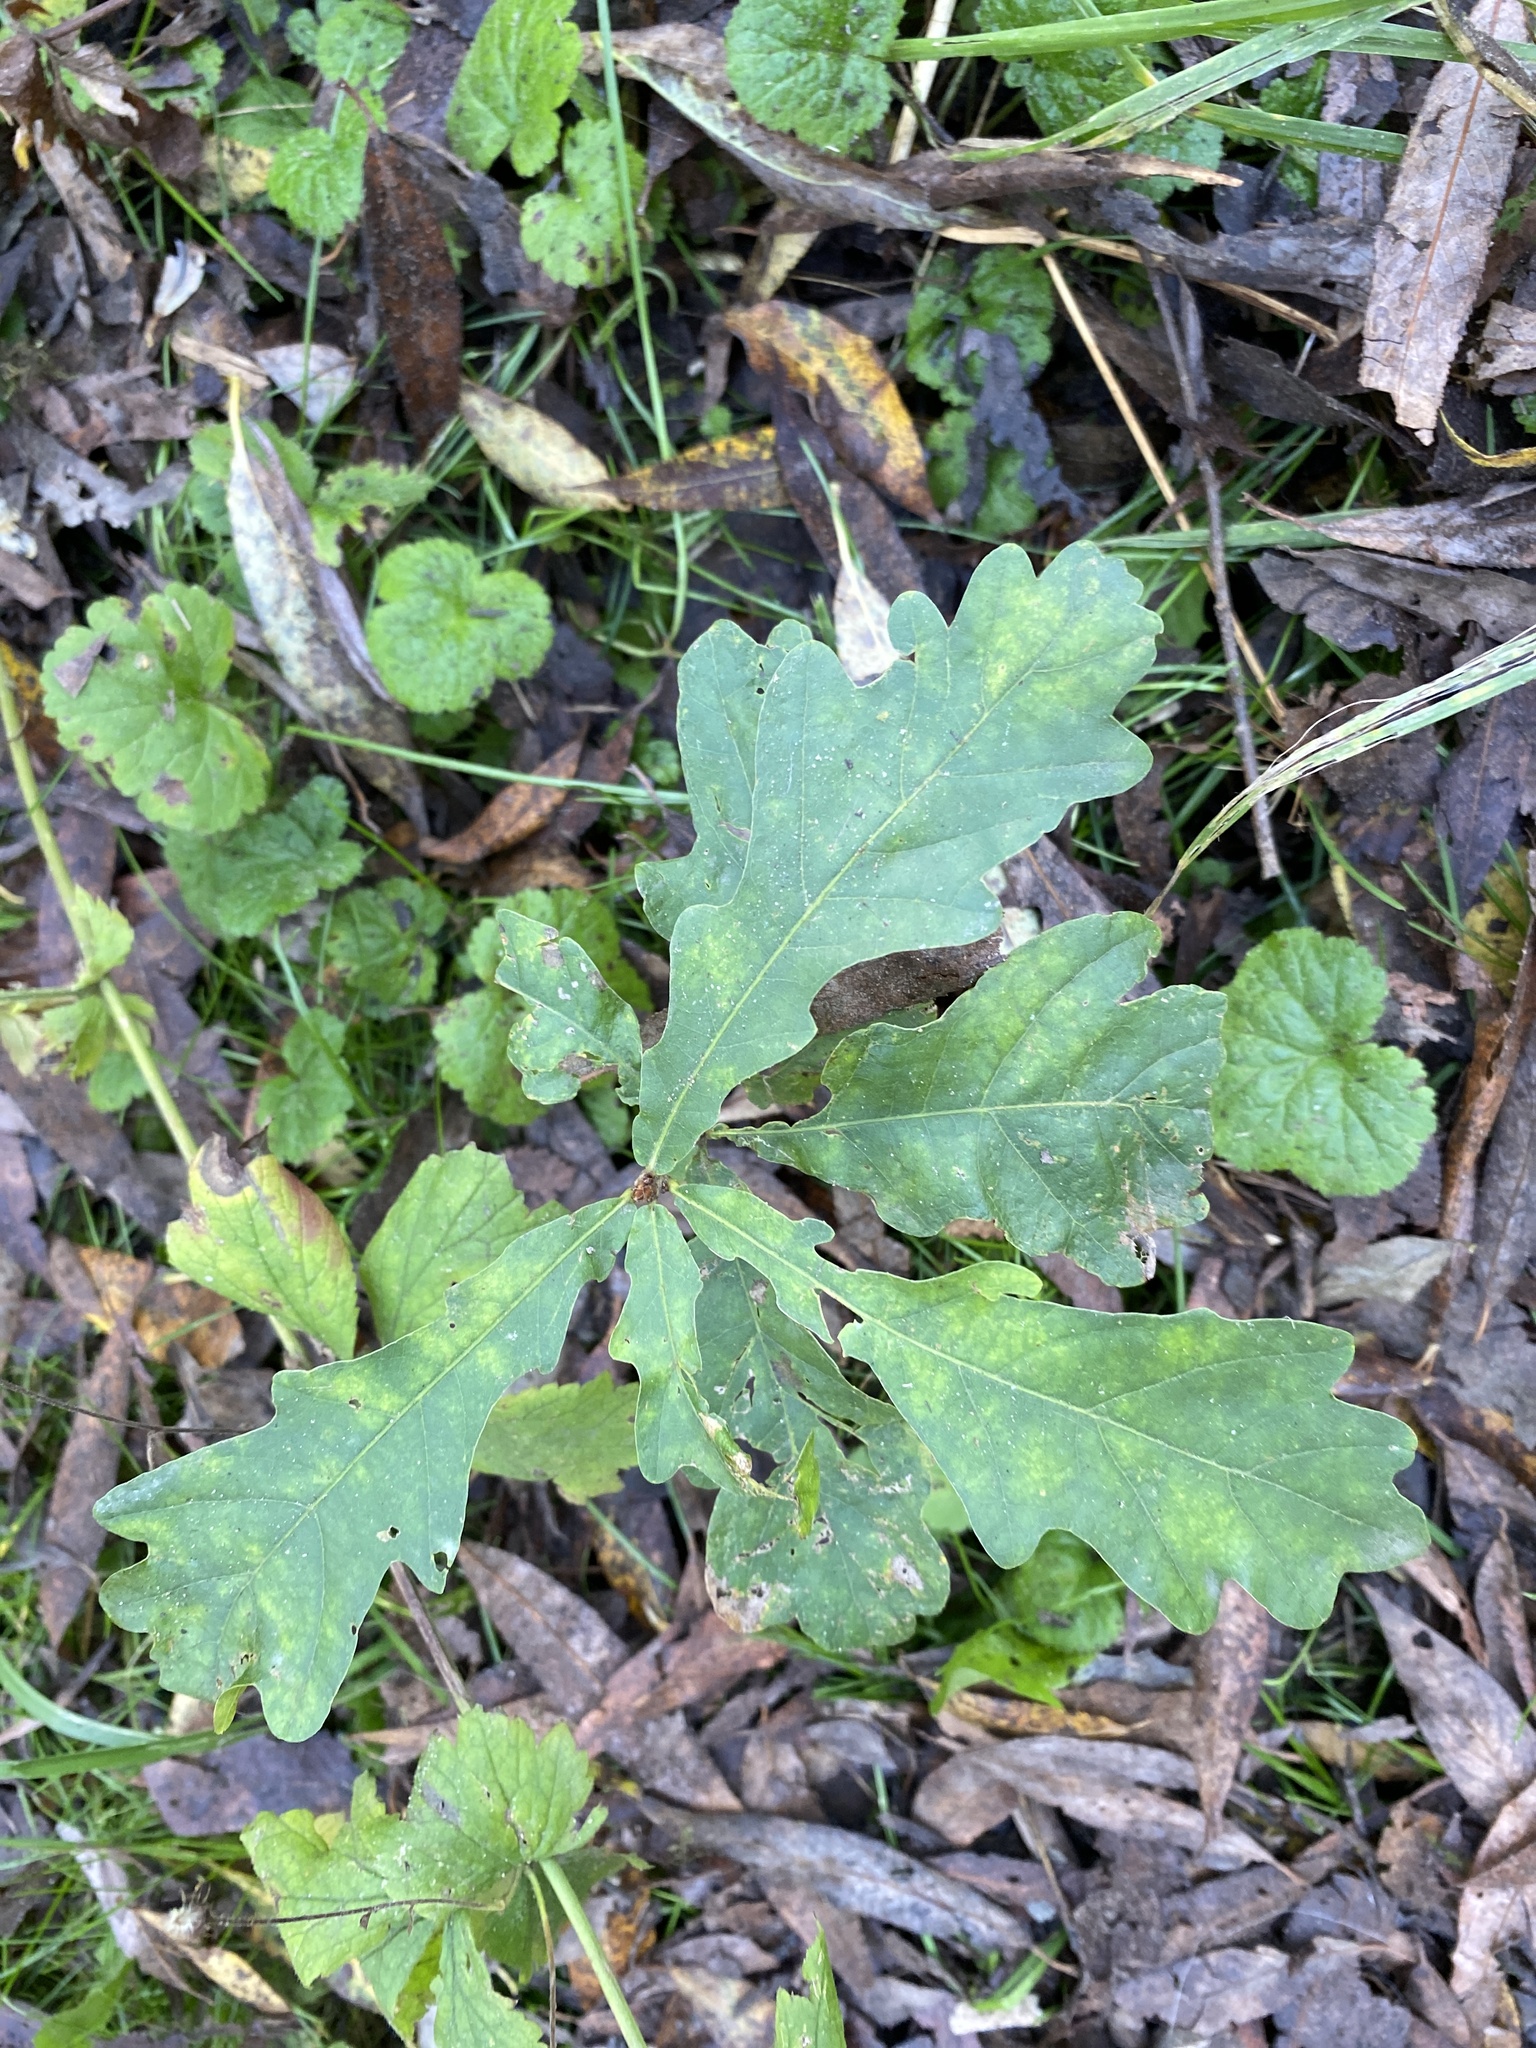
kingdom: Plantae
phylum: Tracheophyta
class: Magnoliopsida
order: Fagales
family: Fagaceae
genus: Quercus
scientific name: Quercus robur
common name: Pedunculate oak
